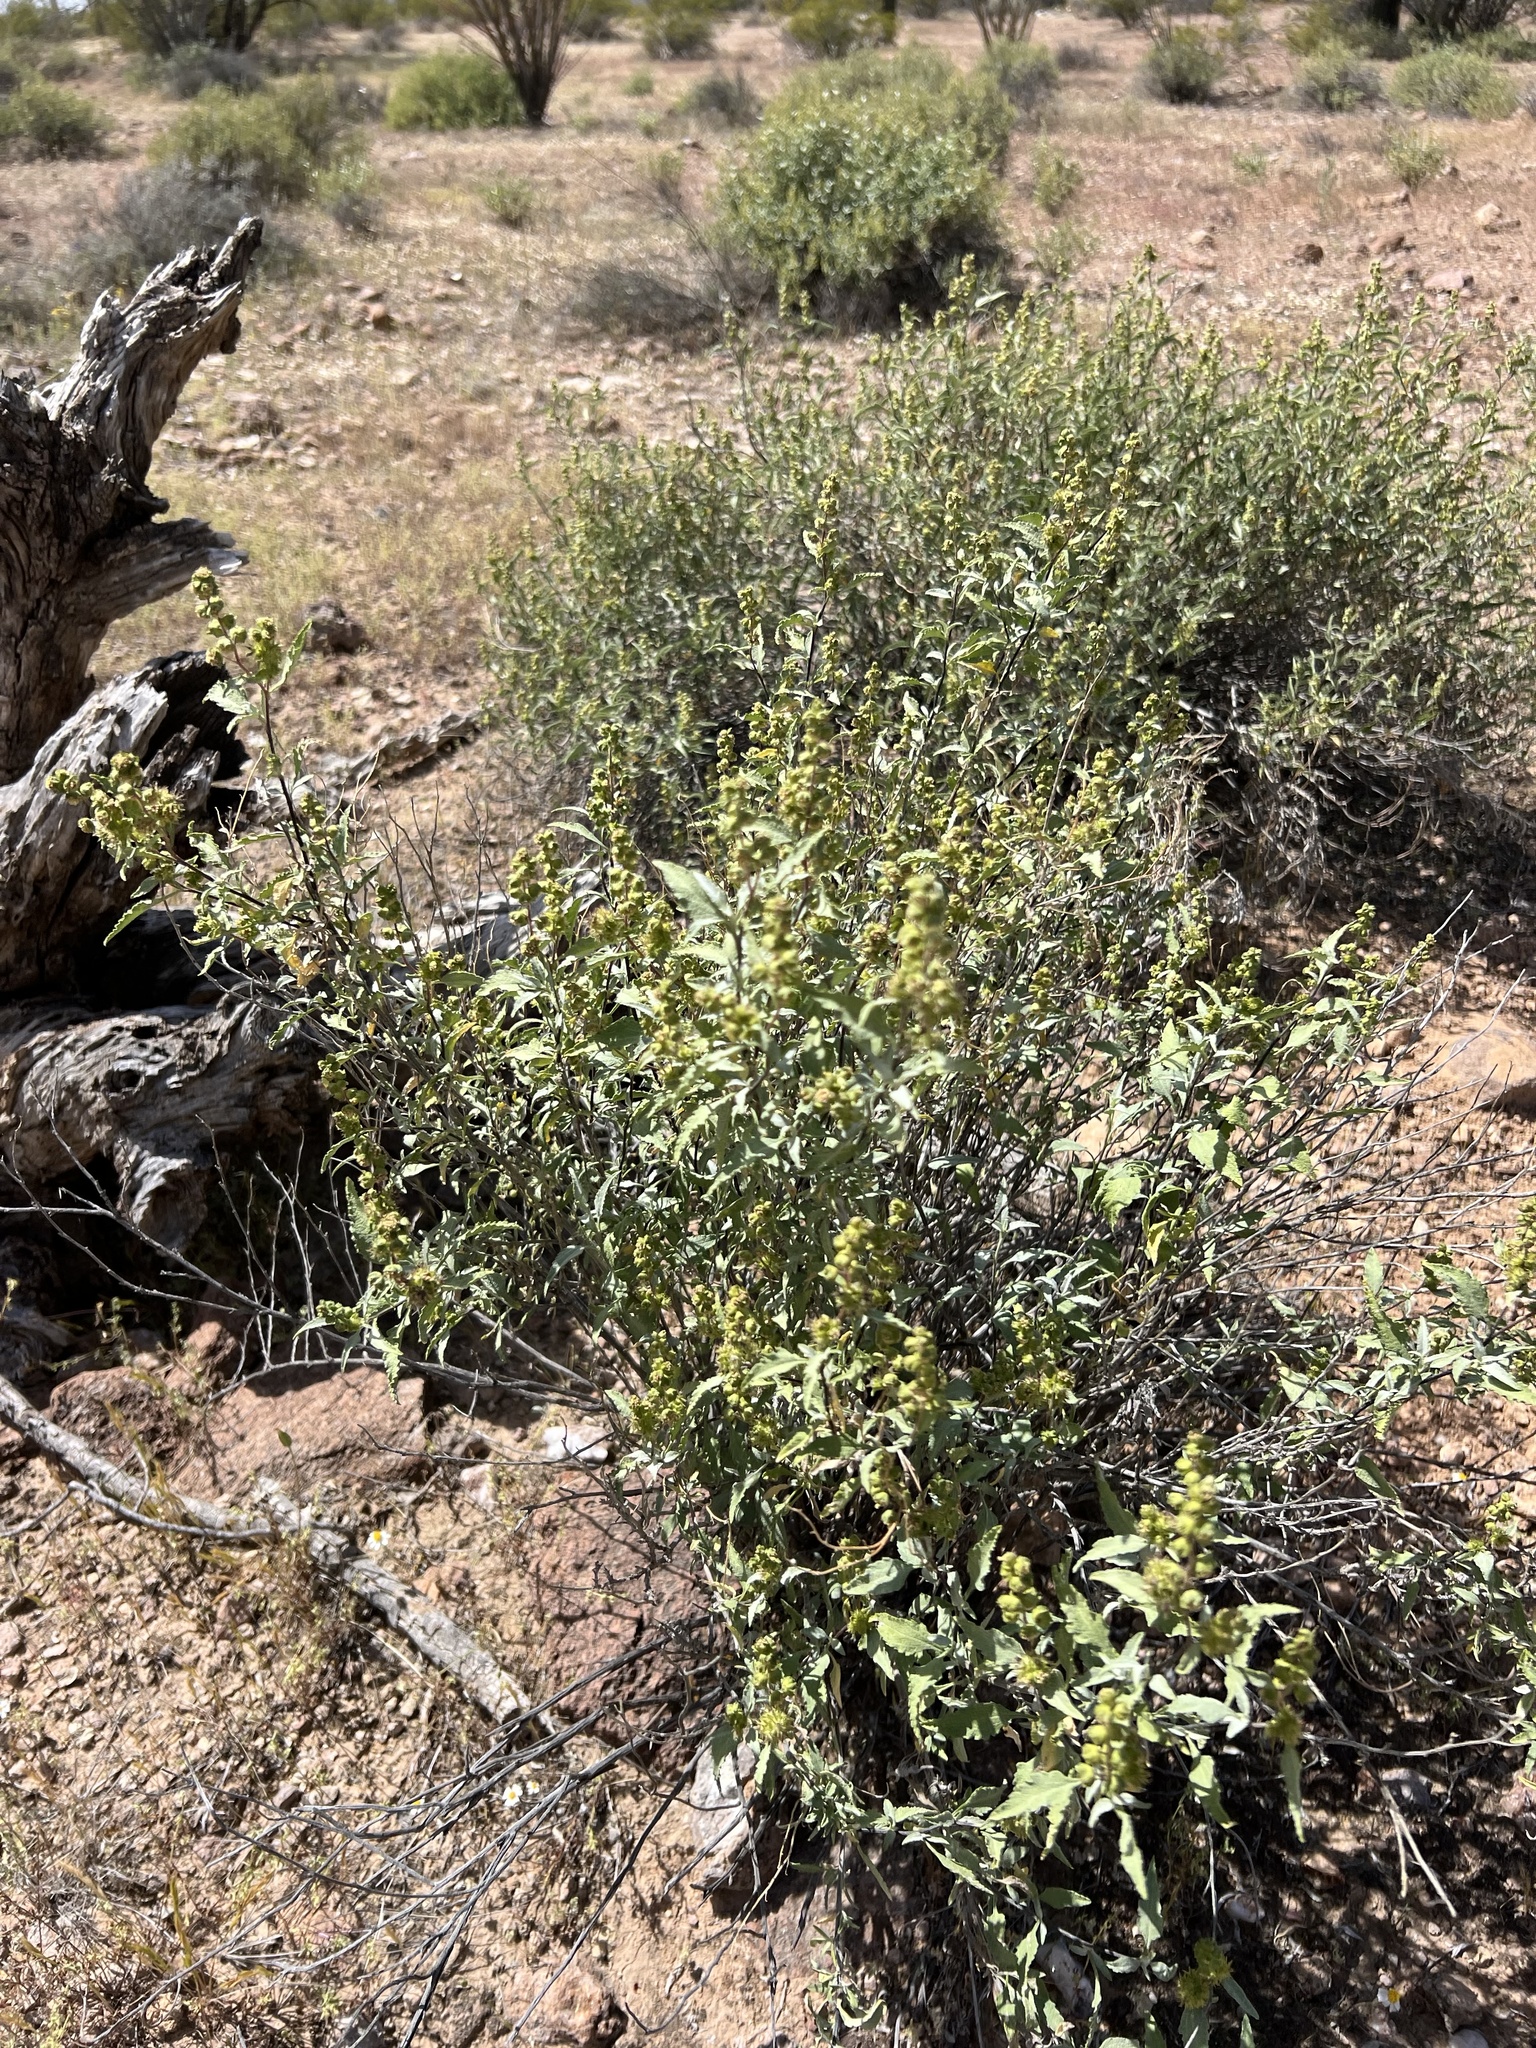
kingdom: Plantae
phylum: Tracheophyta
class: Magnoliopsida
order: Asterales
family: Asteraceae
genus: Ambrosia
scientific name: Ambrosia deltoidea
